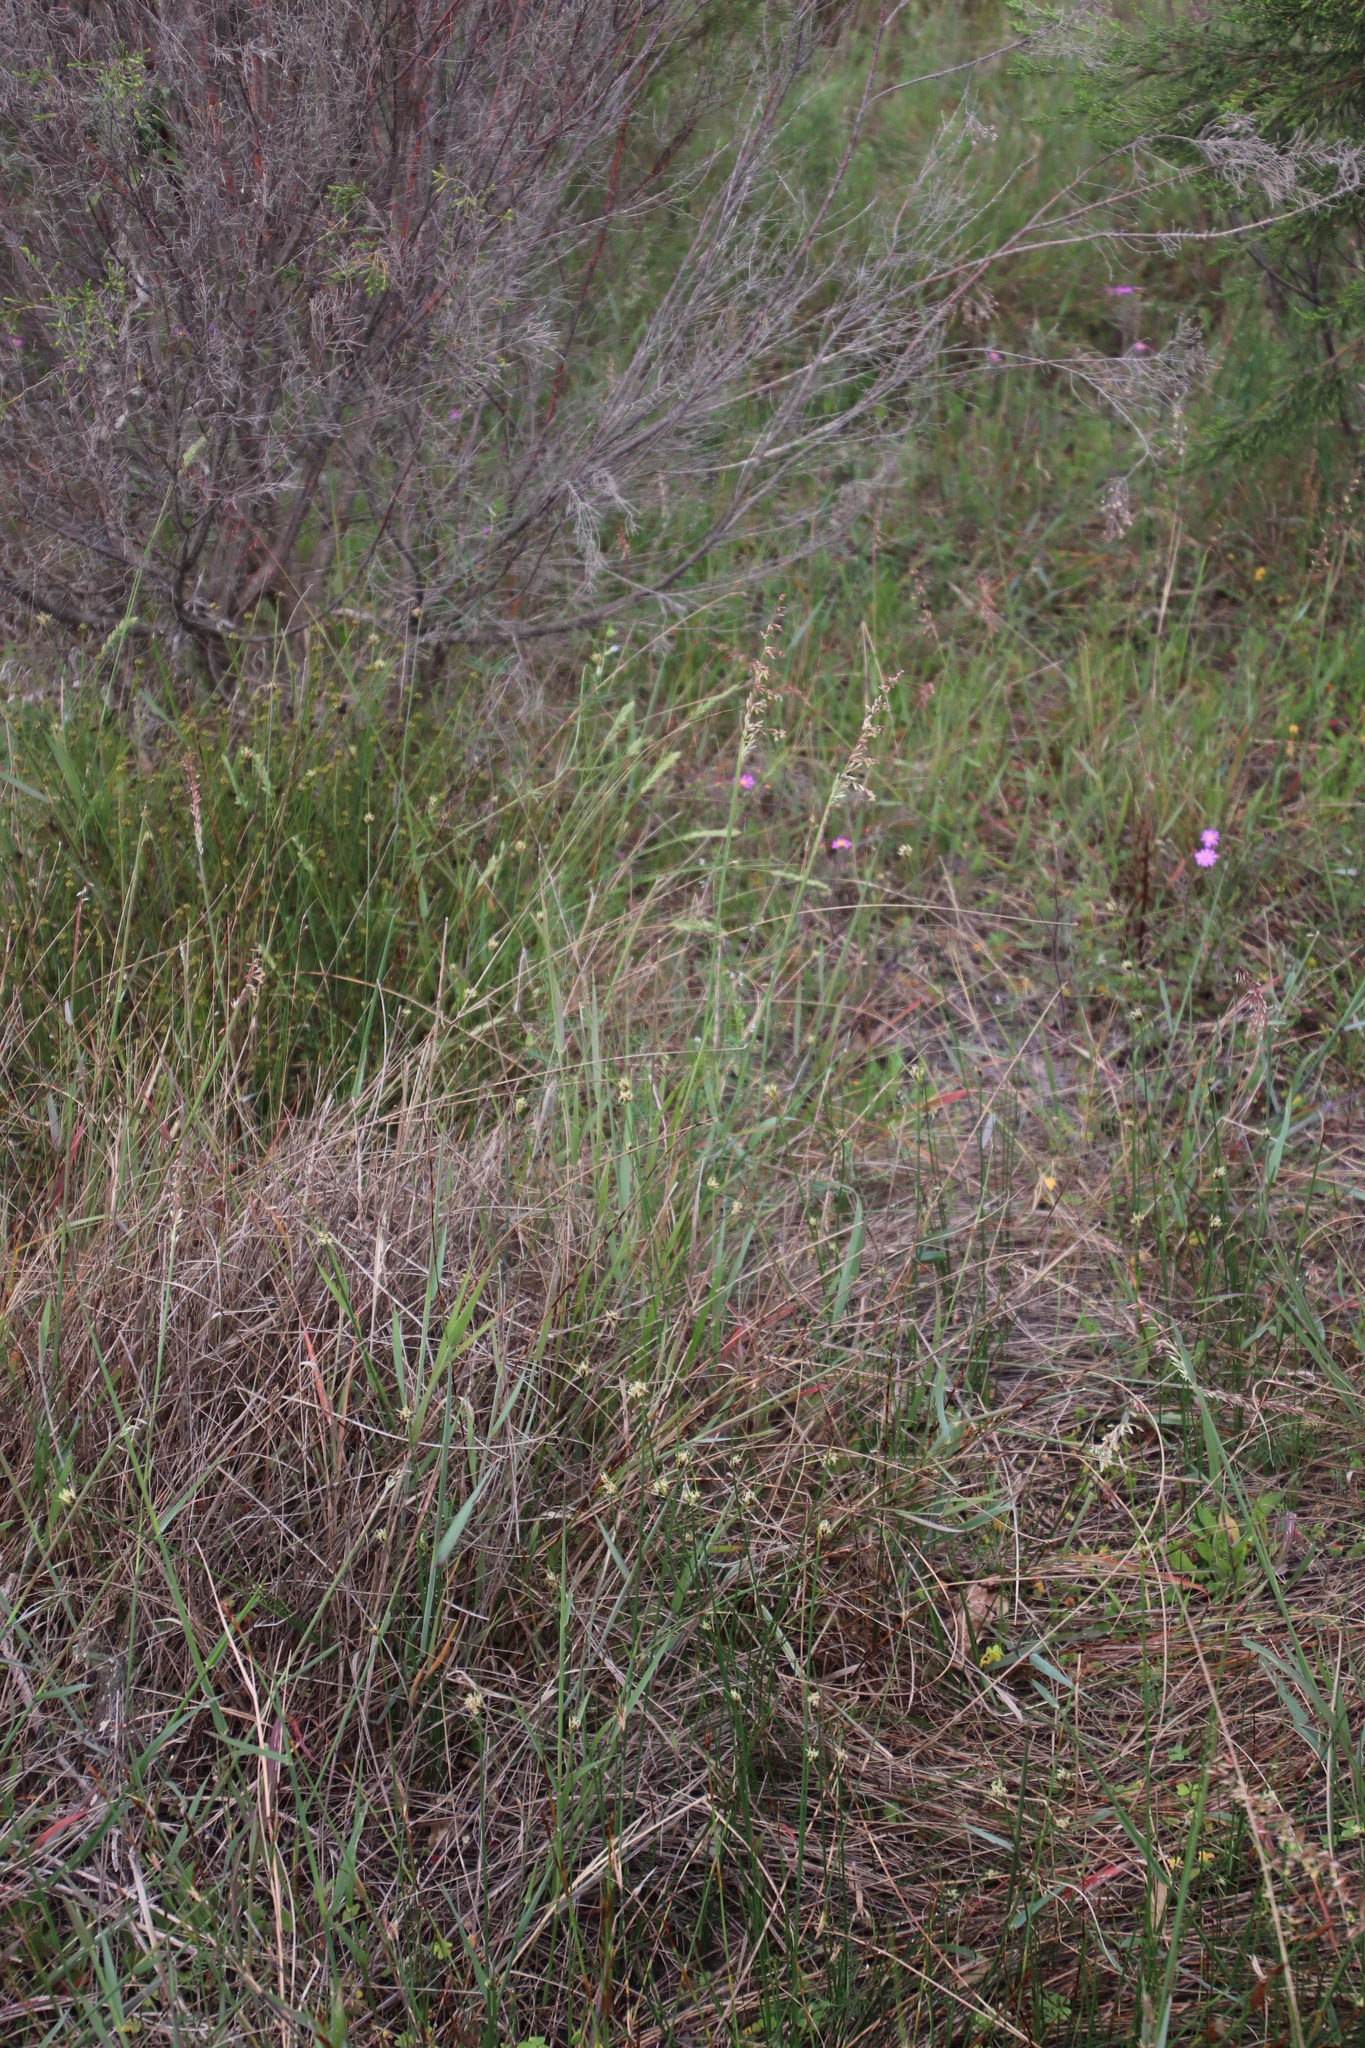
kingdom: Plantae
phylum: Tracheophyta
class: Liliopsida
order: Poales
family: Poaceae
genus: Ehrharta
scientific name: Ehrharta calycina
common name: Perennial veldtgrass
